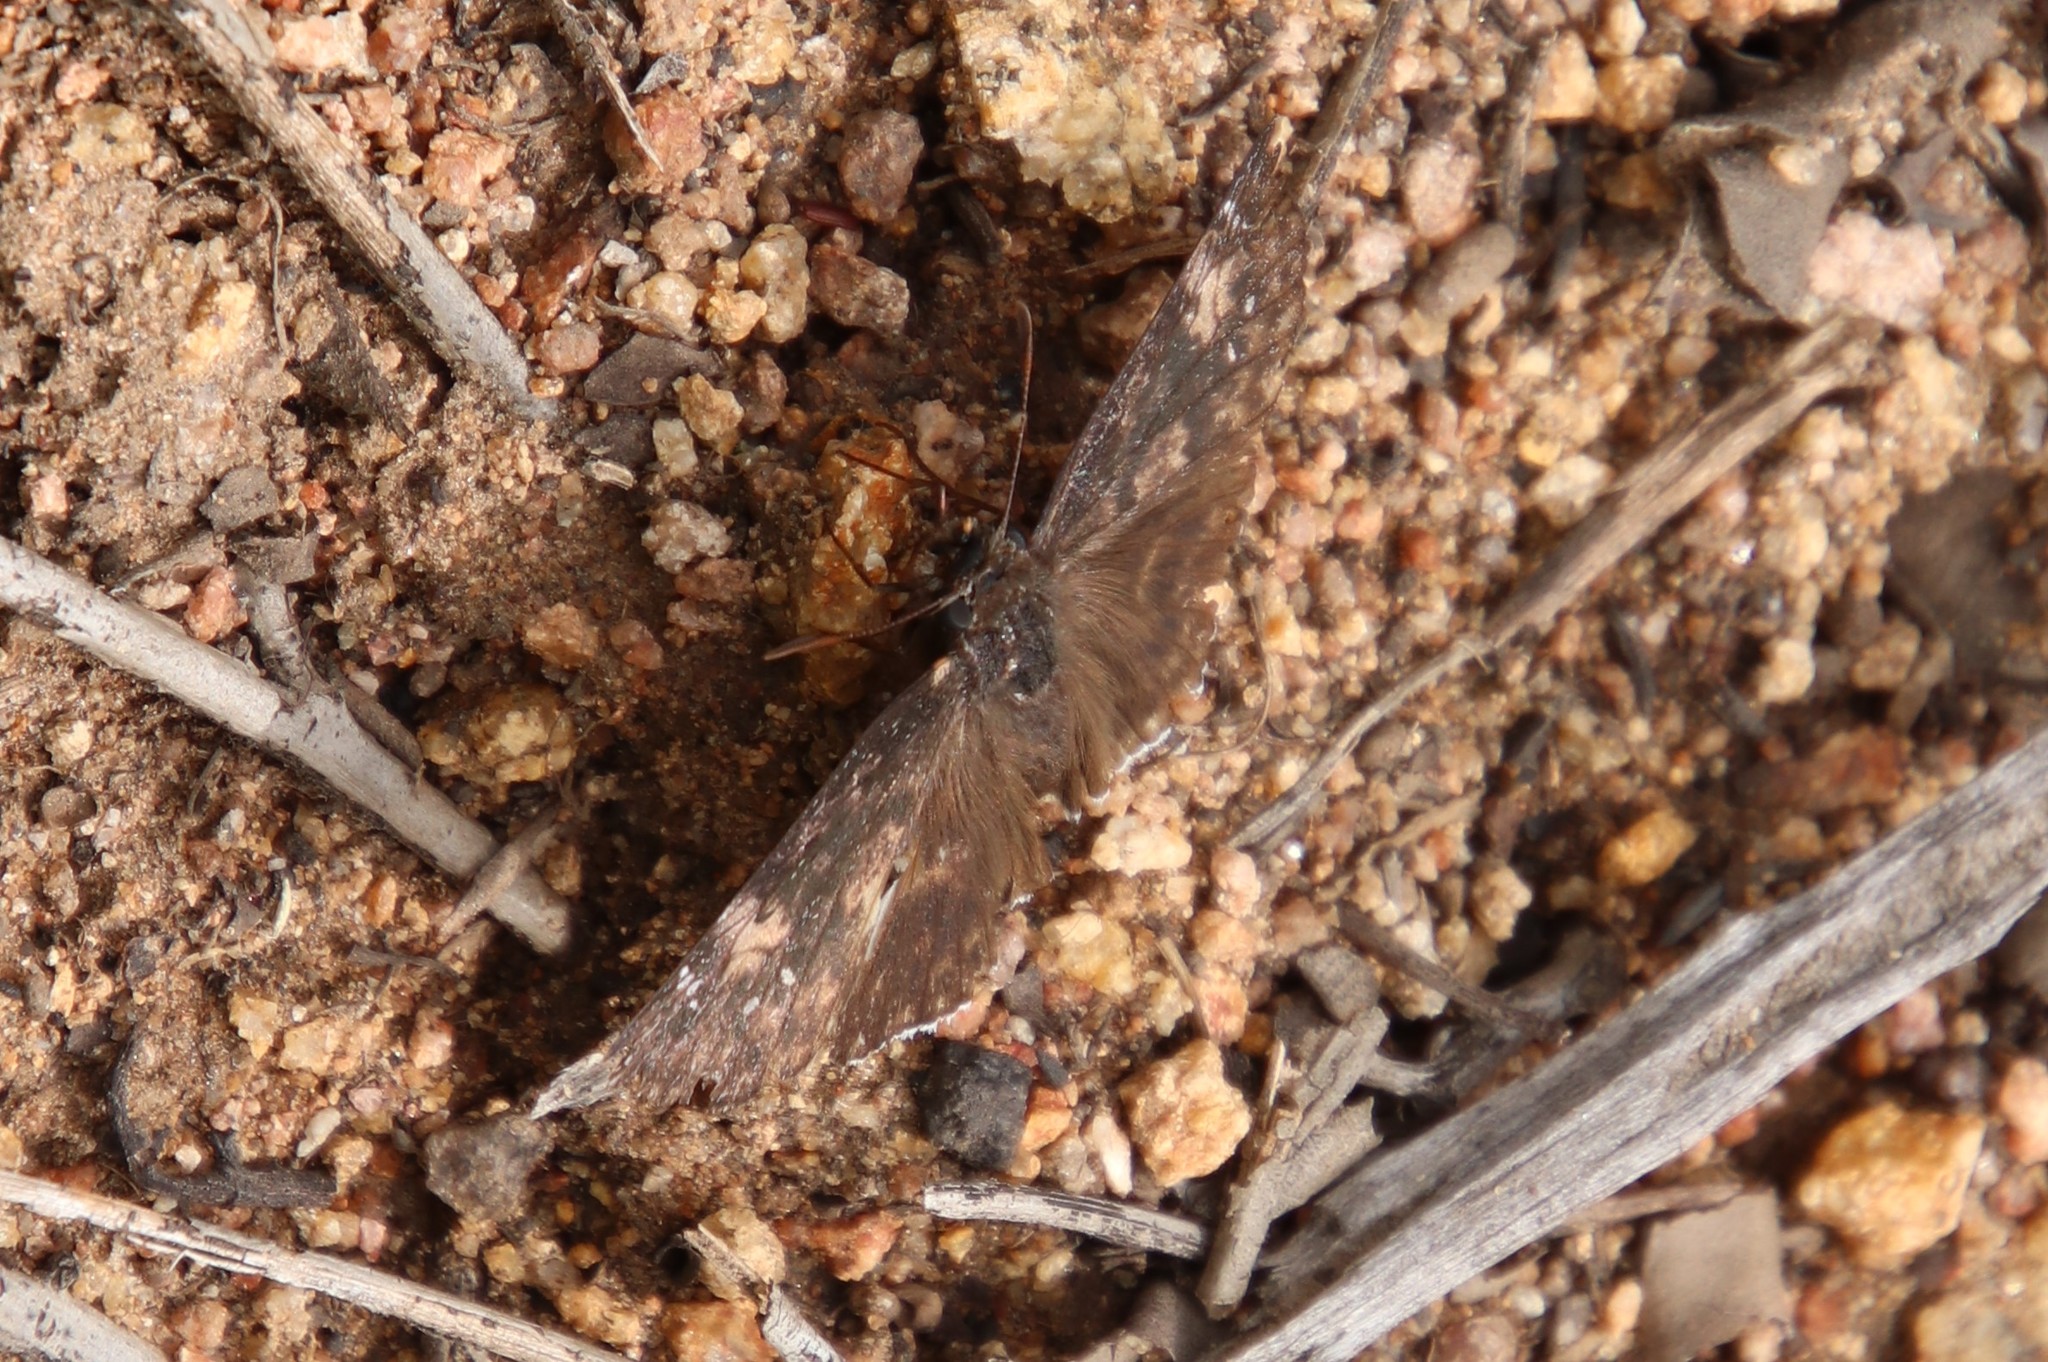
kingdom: Animalia
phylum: Arthropoda
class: Insecta
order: Lepidoptera
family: Hesperiidae
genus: Erynnis
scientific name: Erynnis funeralis
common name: Funereal duskywing
